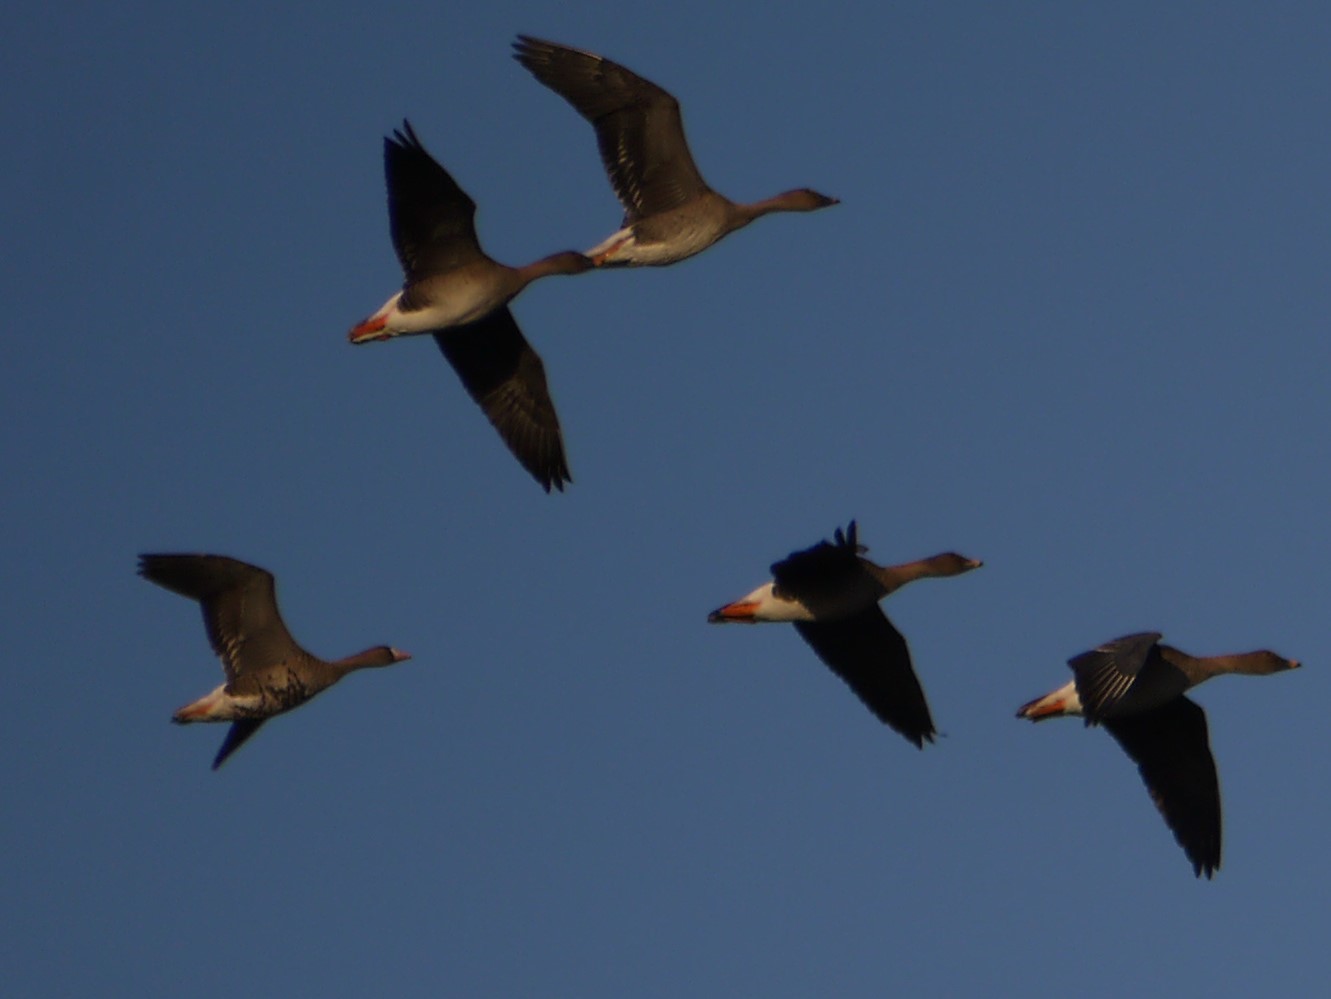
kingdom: Animalia
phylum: Chordata
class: Aves
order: Anseriformes
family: Anatidae
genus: Anser
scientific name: Anser albifrons
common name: Greater white-fronted goose
